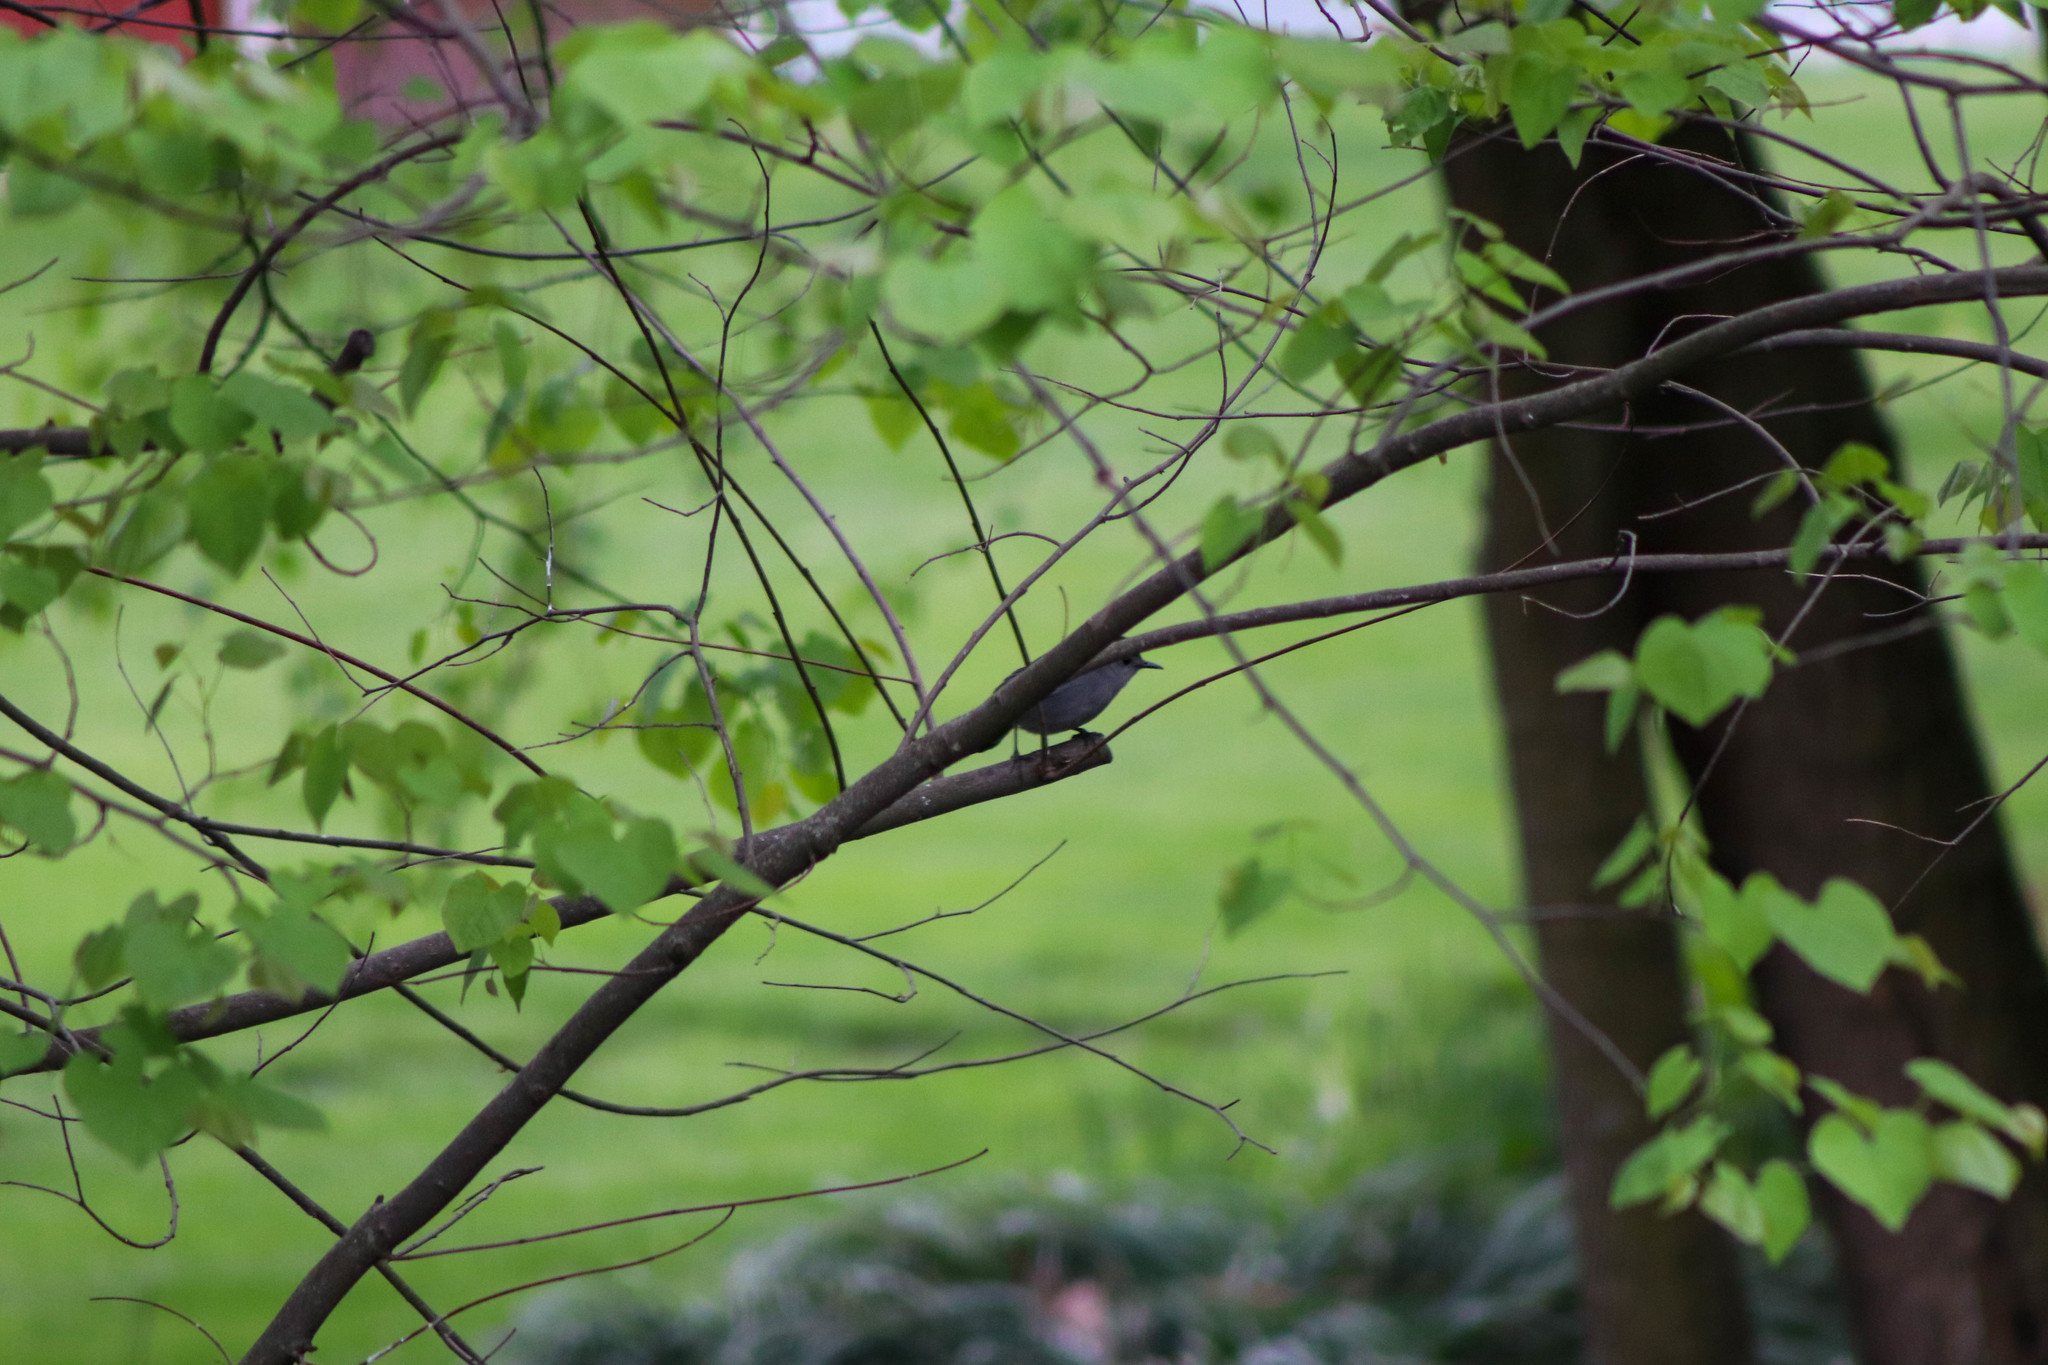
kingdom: Animalia
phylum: Chordata
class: Aves
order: Passeriformes
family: Mimidae
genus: Dumetella
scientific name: Dumetella carolinensis
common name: Gray catbird
